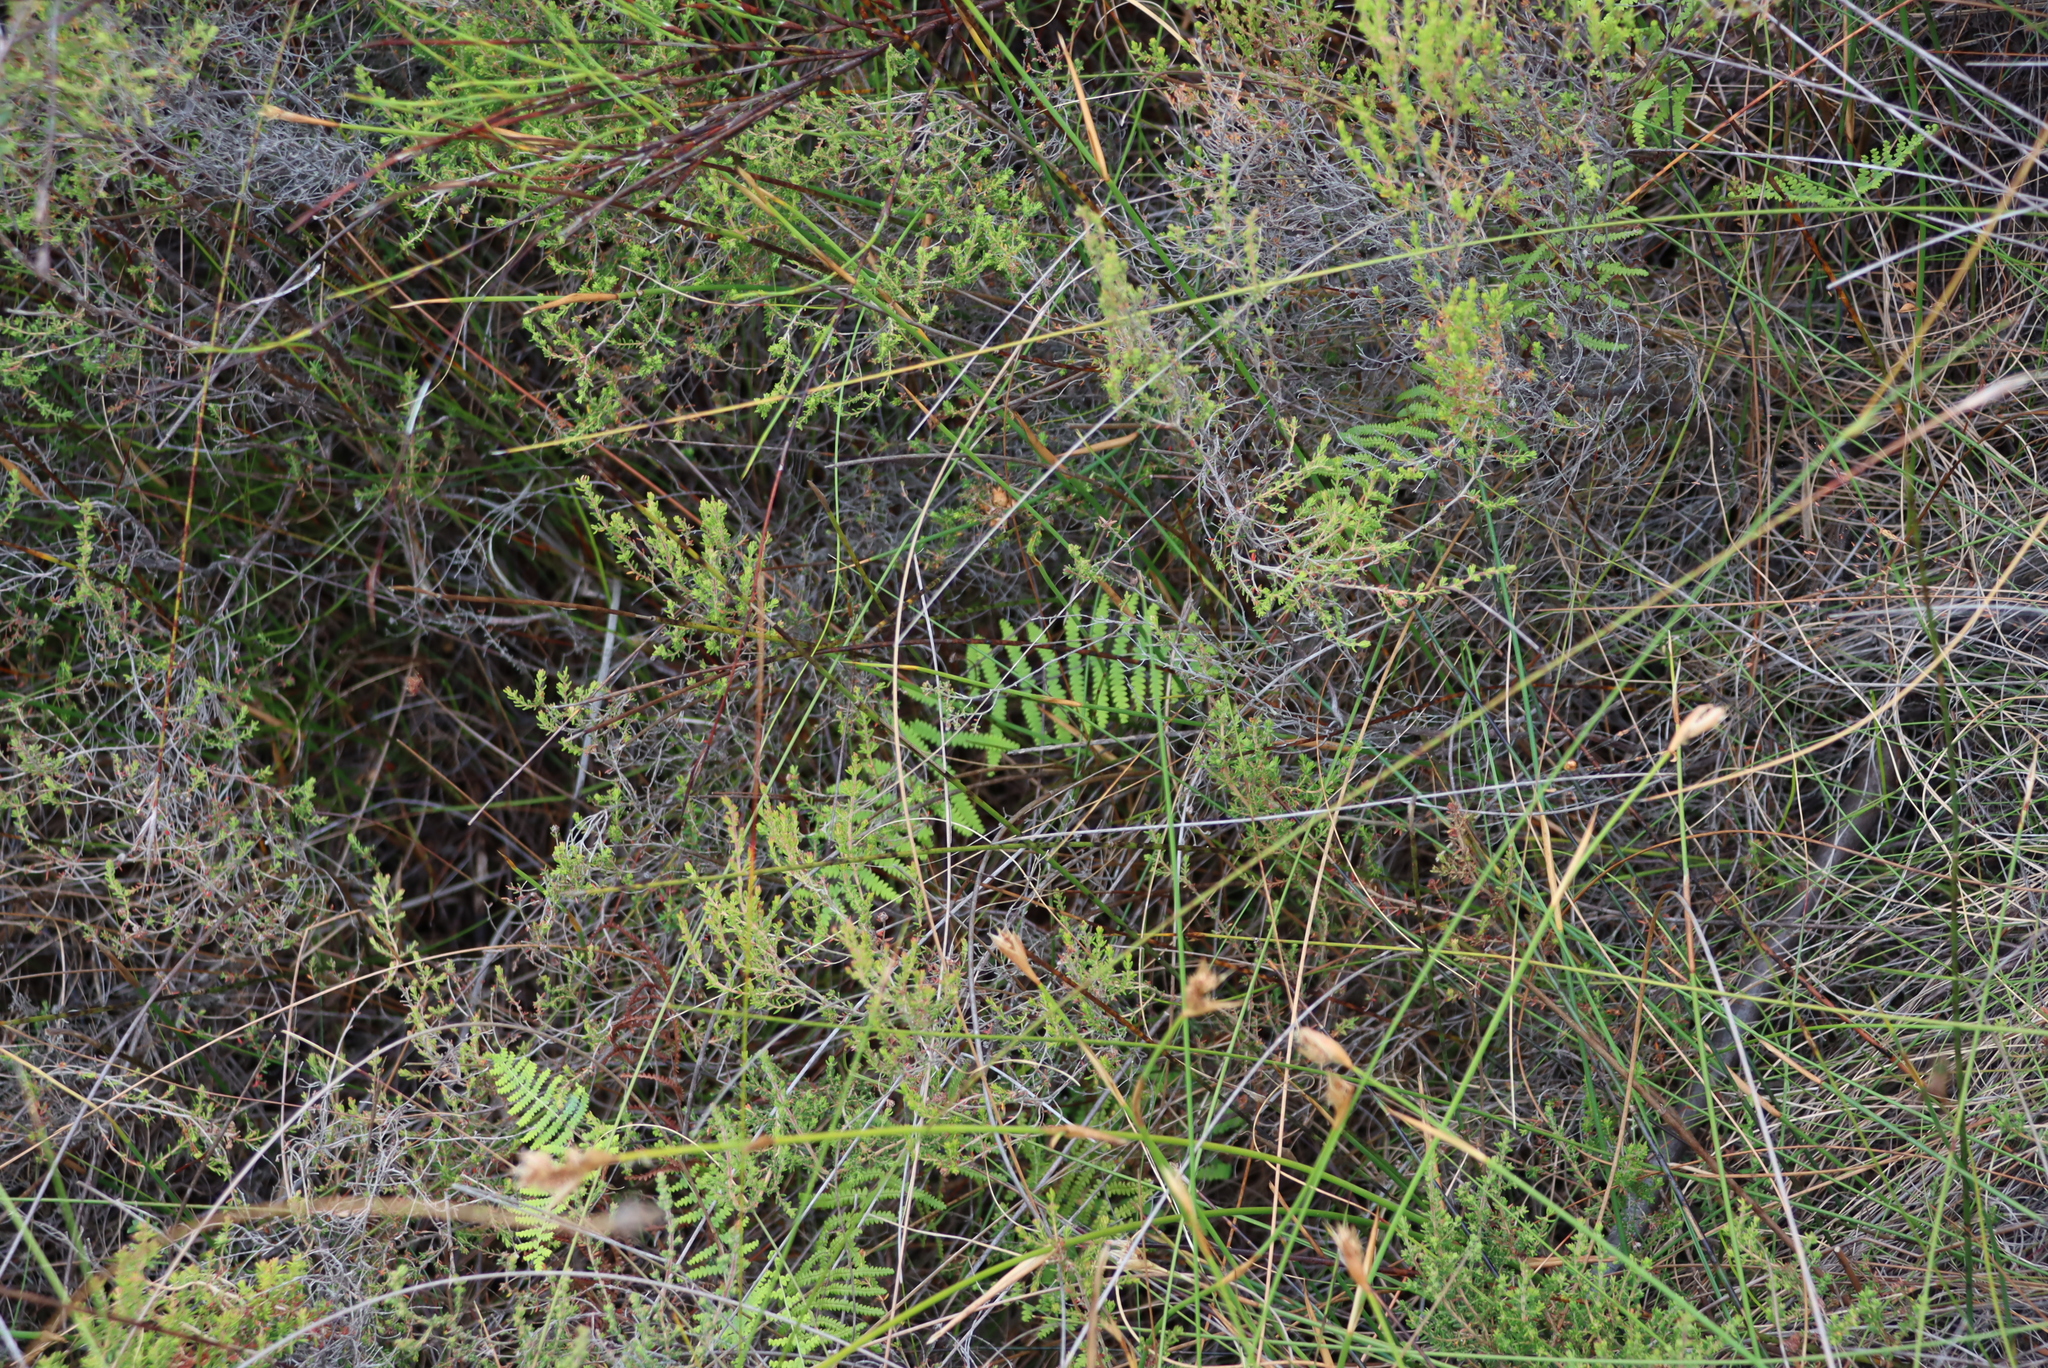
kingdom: Plantae
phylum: Tracheophyta
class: Polypodiopsida
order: Gleicheniales
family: Gleicheniaceae
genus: Gleichenia
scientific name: Gleichenia polypodioides
